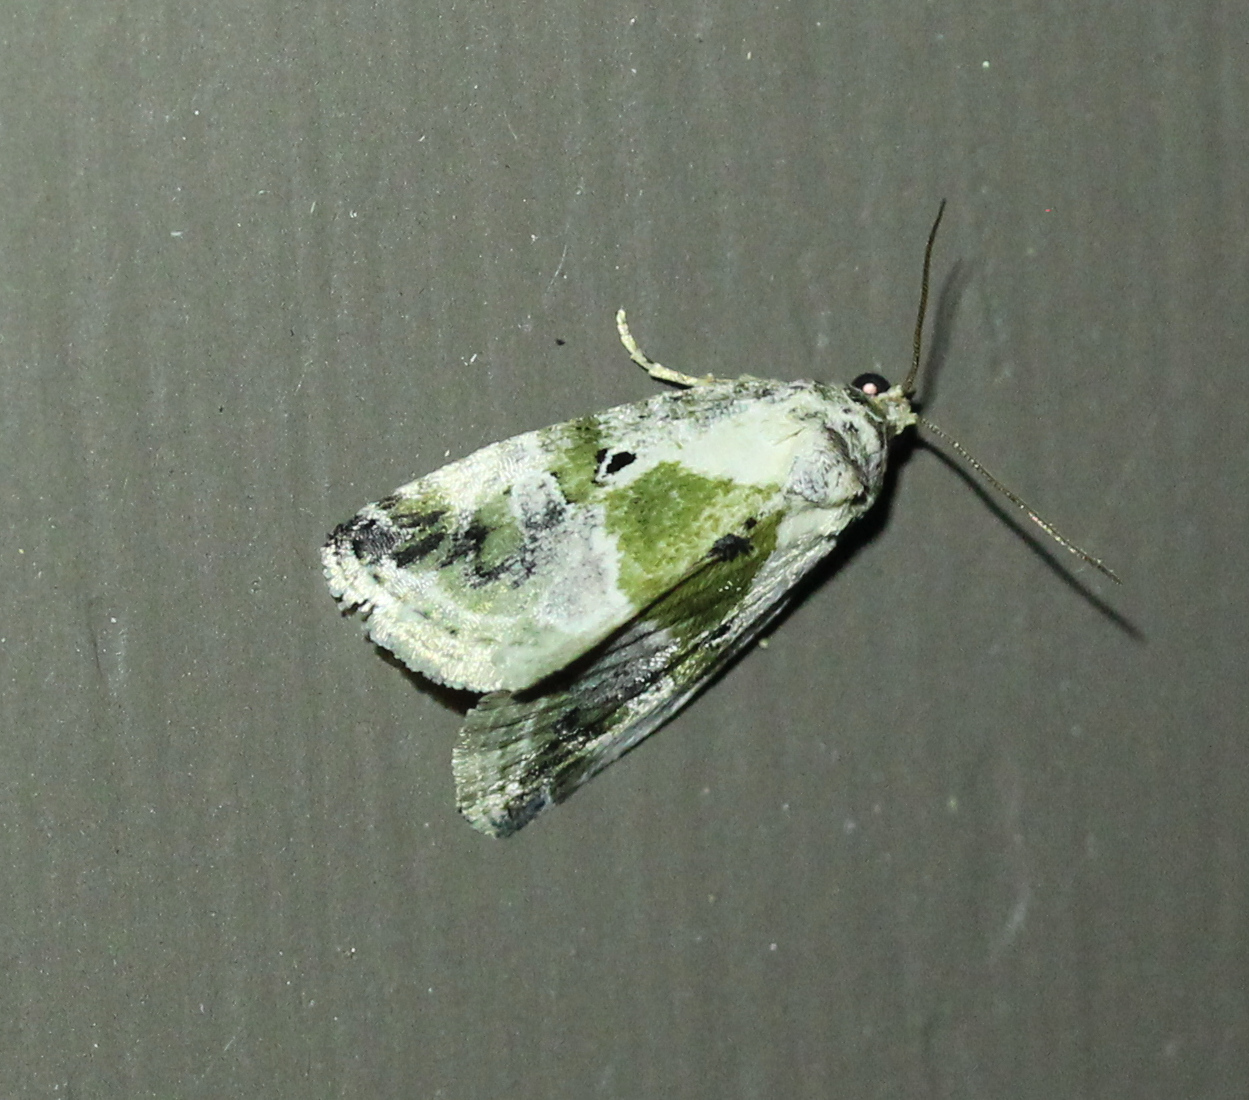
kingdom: Animalia
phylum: Arthropoda
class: Insecta
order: Lepidoptera
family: Noctuidae
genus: Maliattha
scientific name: Maliattha synochitis
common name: Black-dotted glyph
